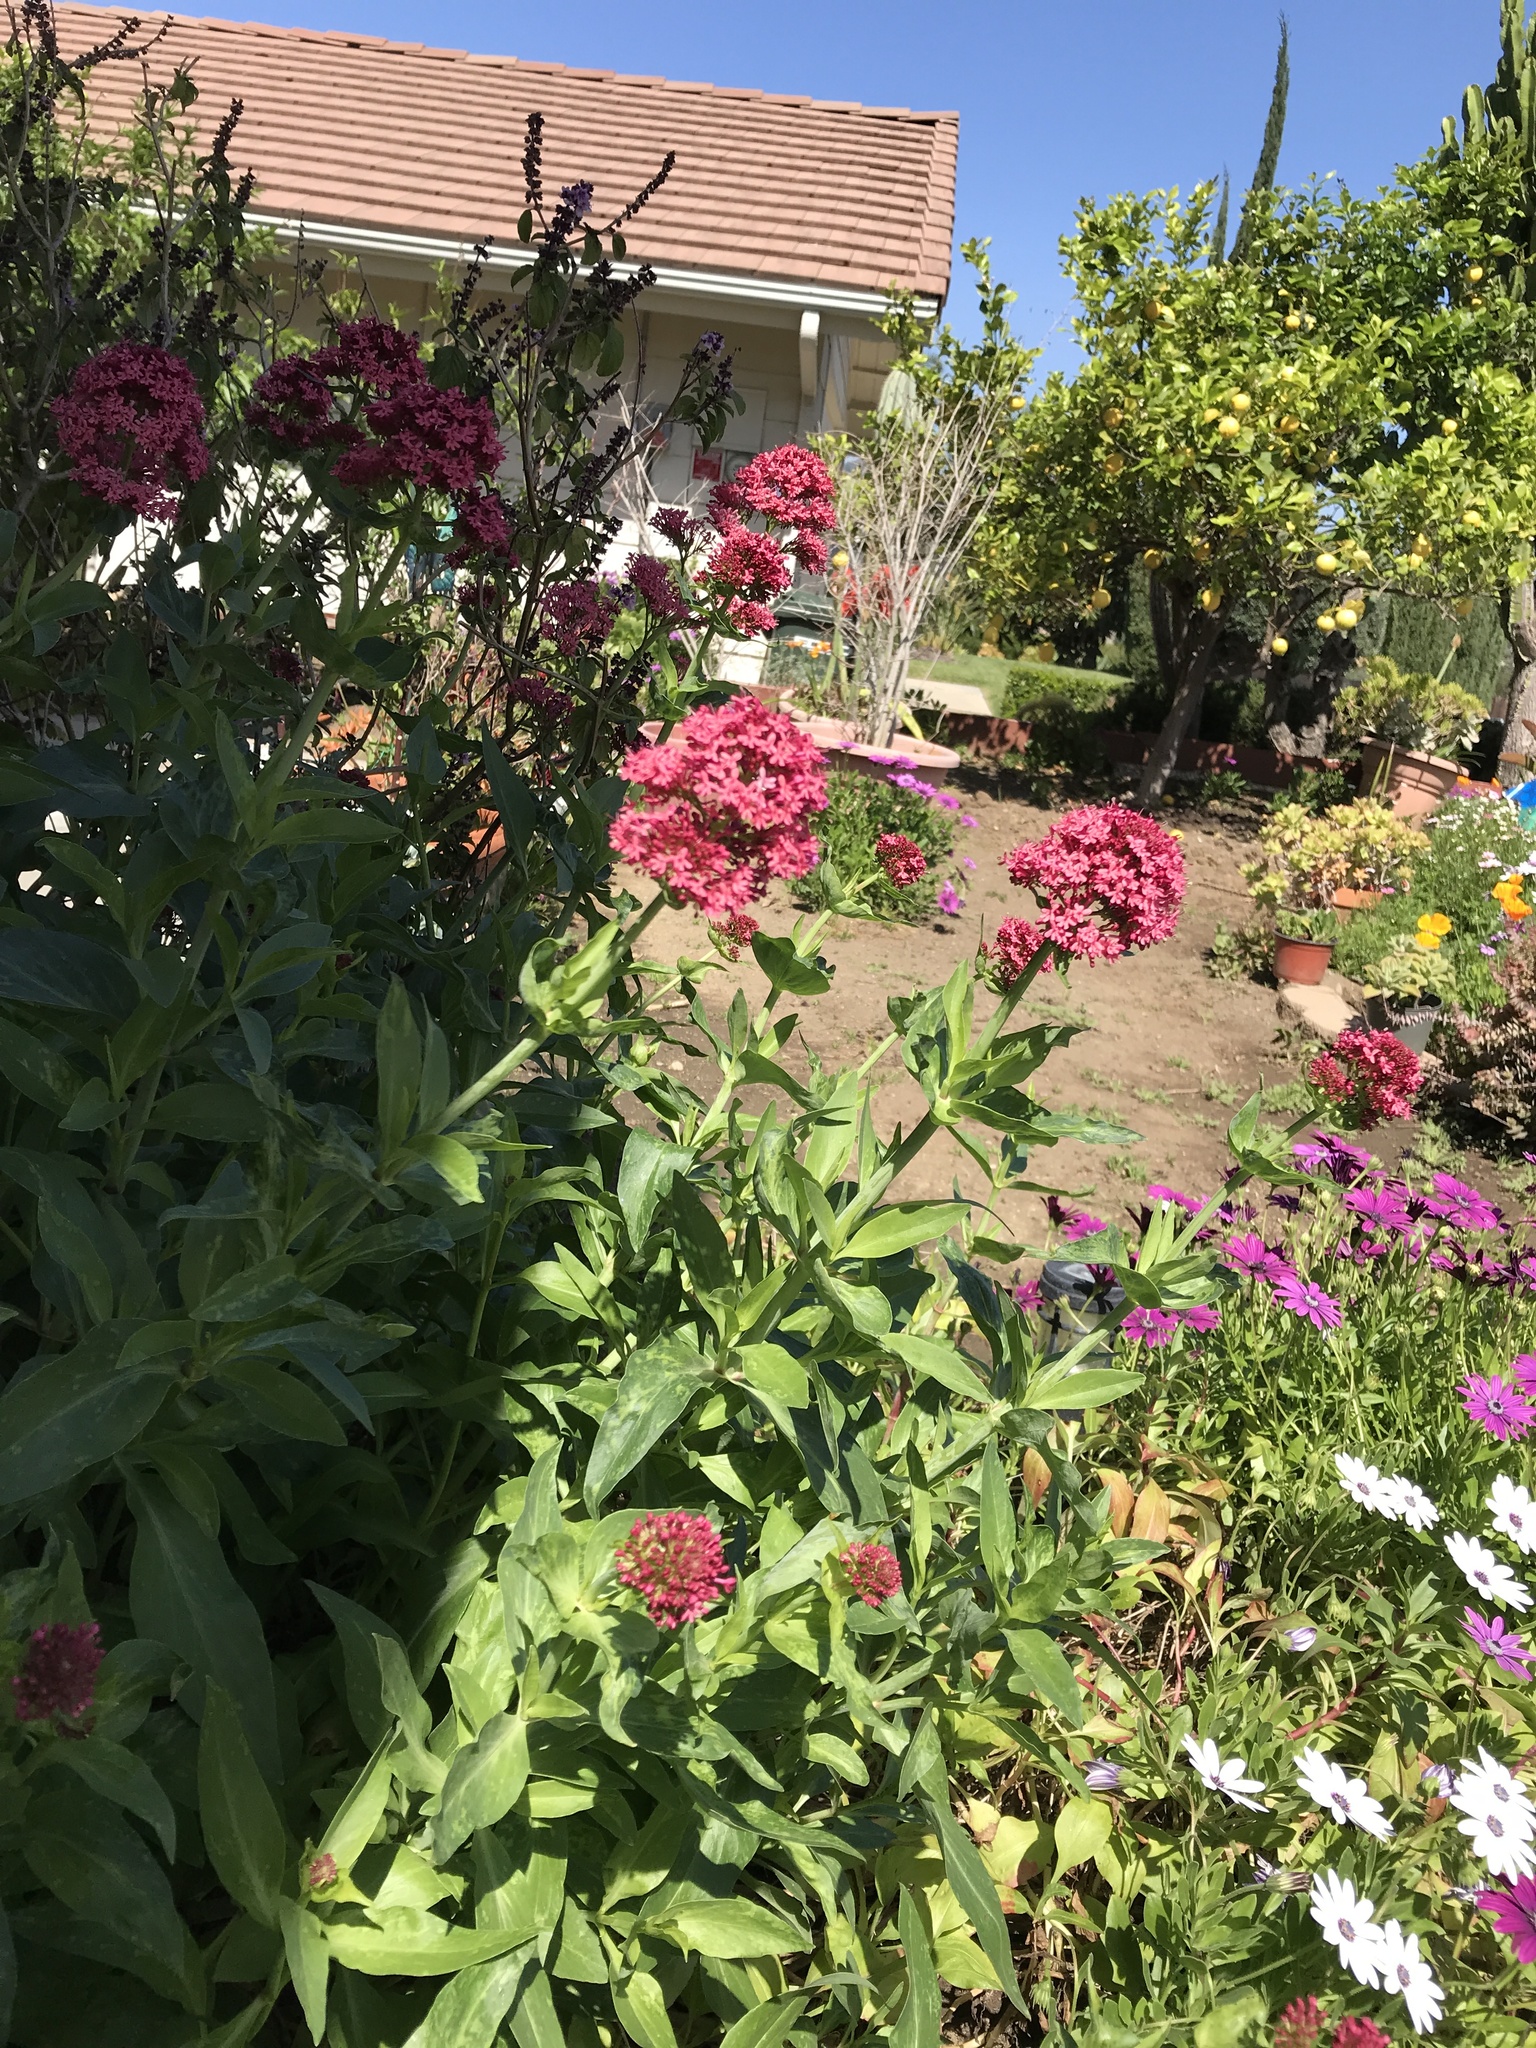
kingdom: Plantae
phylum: Tracheophyta
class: Magnoliopsida
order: Dipsacales
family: Caprifoliaceae
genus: Centranthus
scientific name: Centranthus ruber
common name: Red valerian
